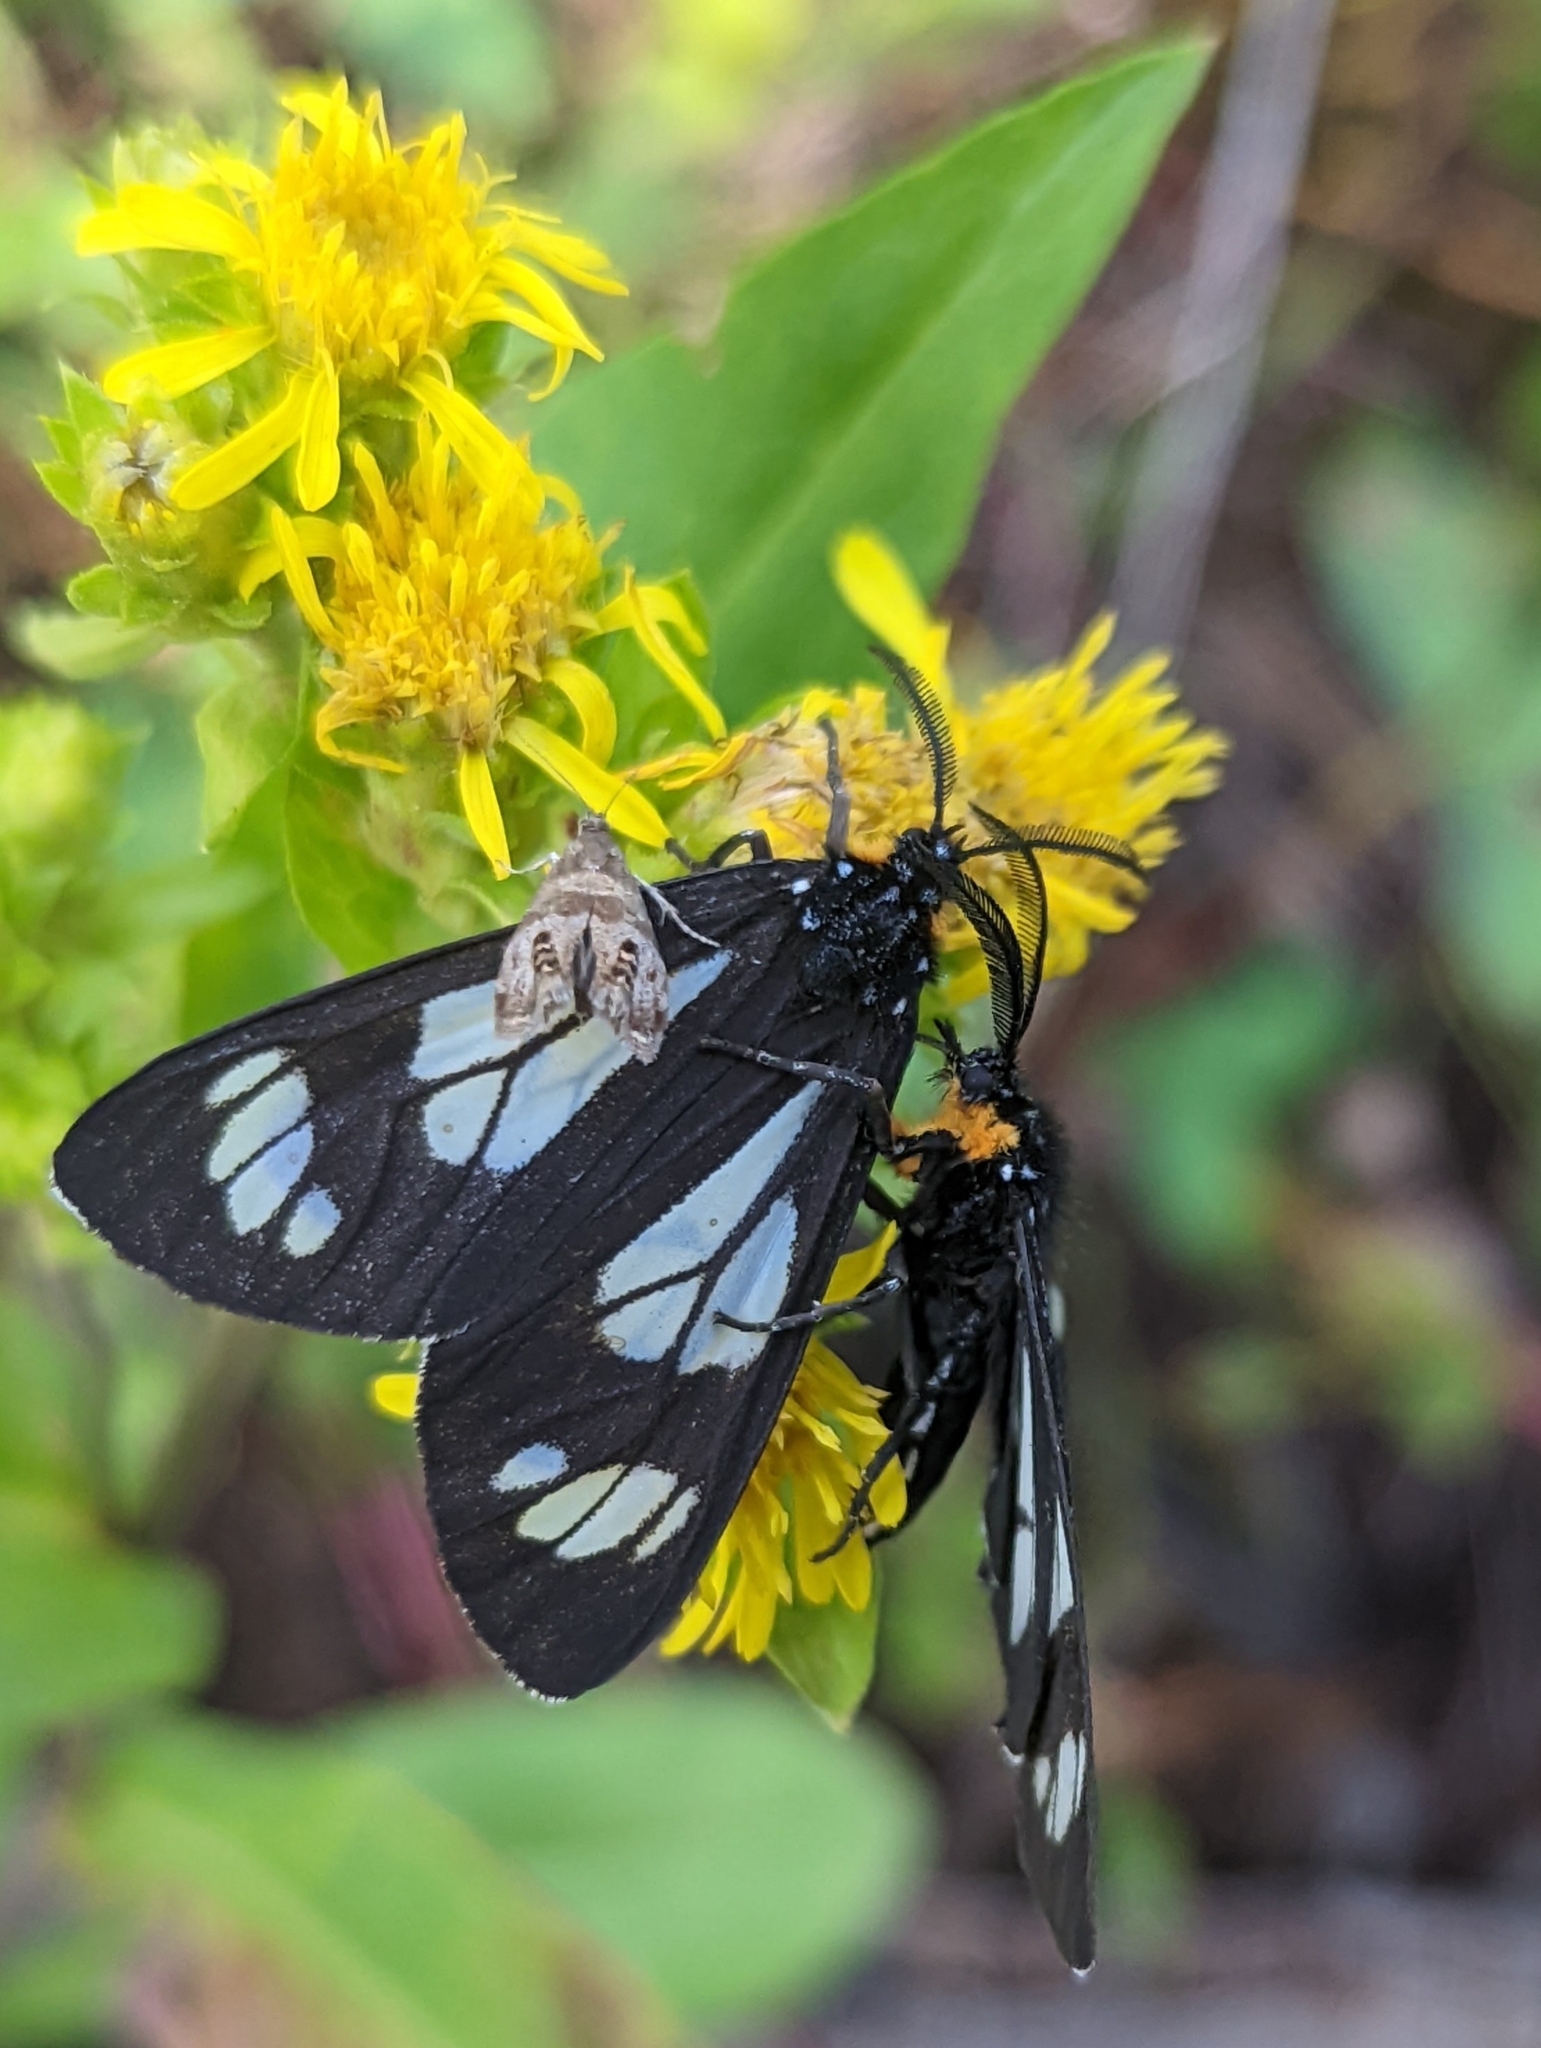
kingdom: Animalia
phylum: Arthropoda
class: Insecta
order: Lepidoptera
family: Erebidae
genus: Gnophaela
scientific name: Gnophaela vermiculata
